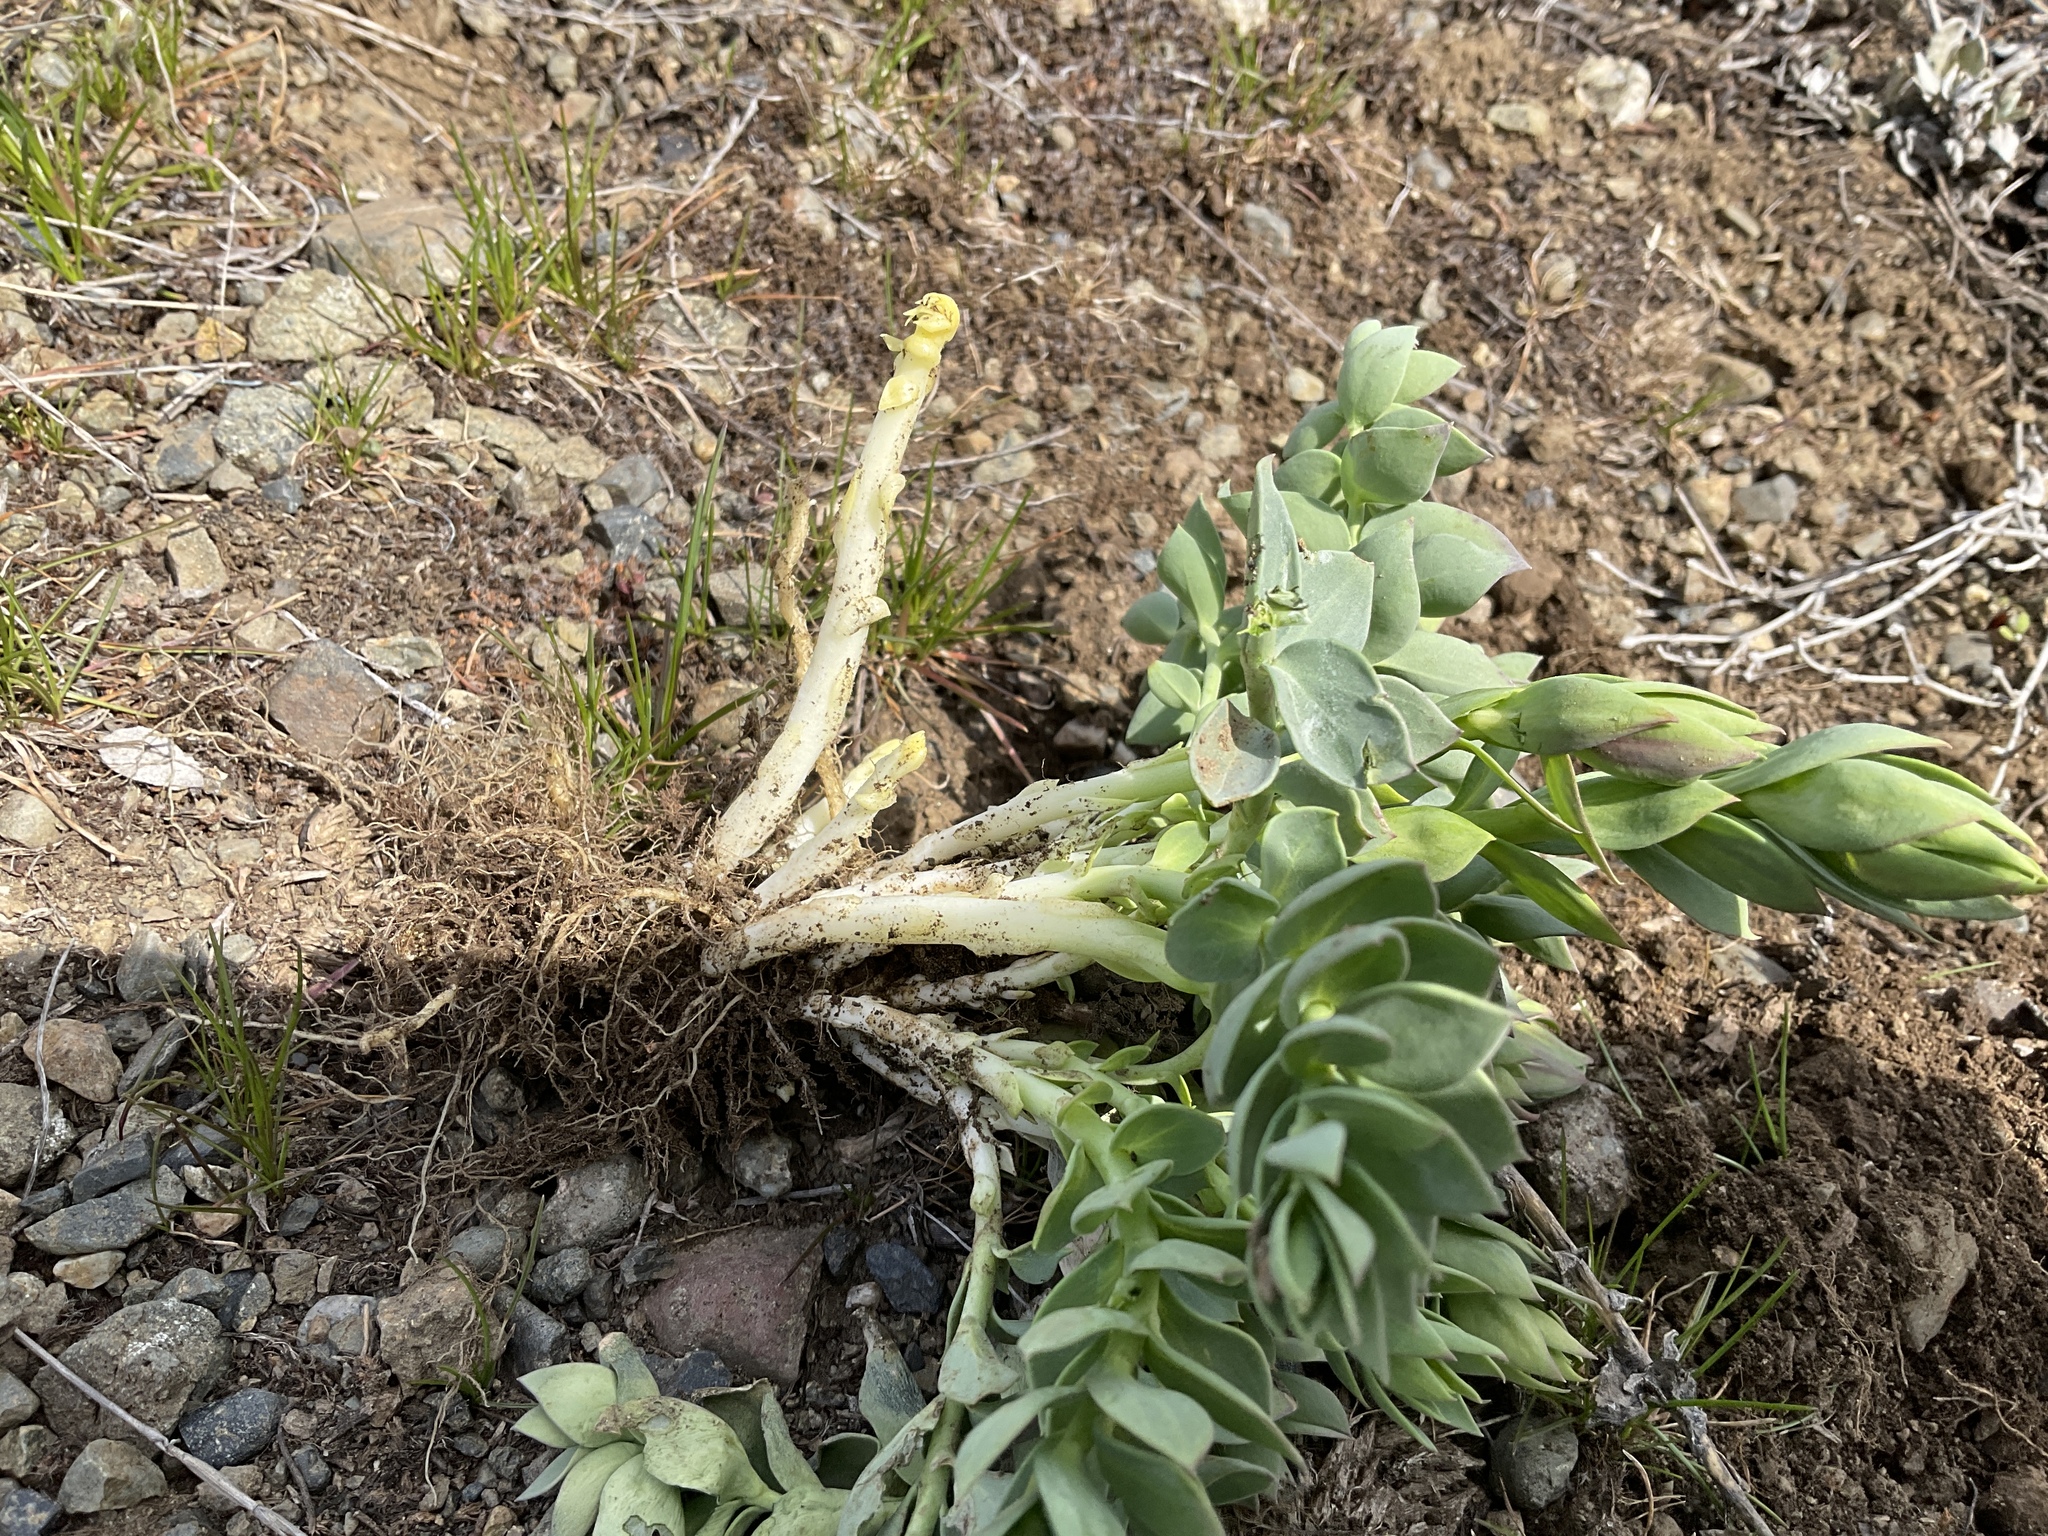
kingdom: Plantae
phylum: Tracheophyta
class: Magnoliopsida
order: Lamiales
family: Plantaginaceae
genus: Linaria
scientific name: Linaria dalmatica
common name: Dalmatian toadflax
